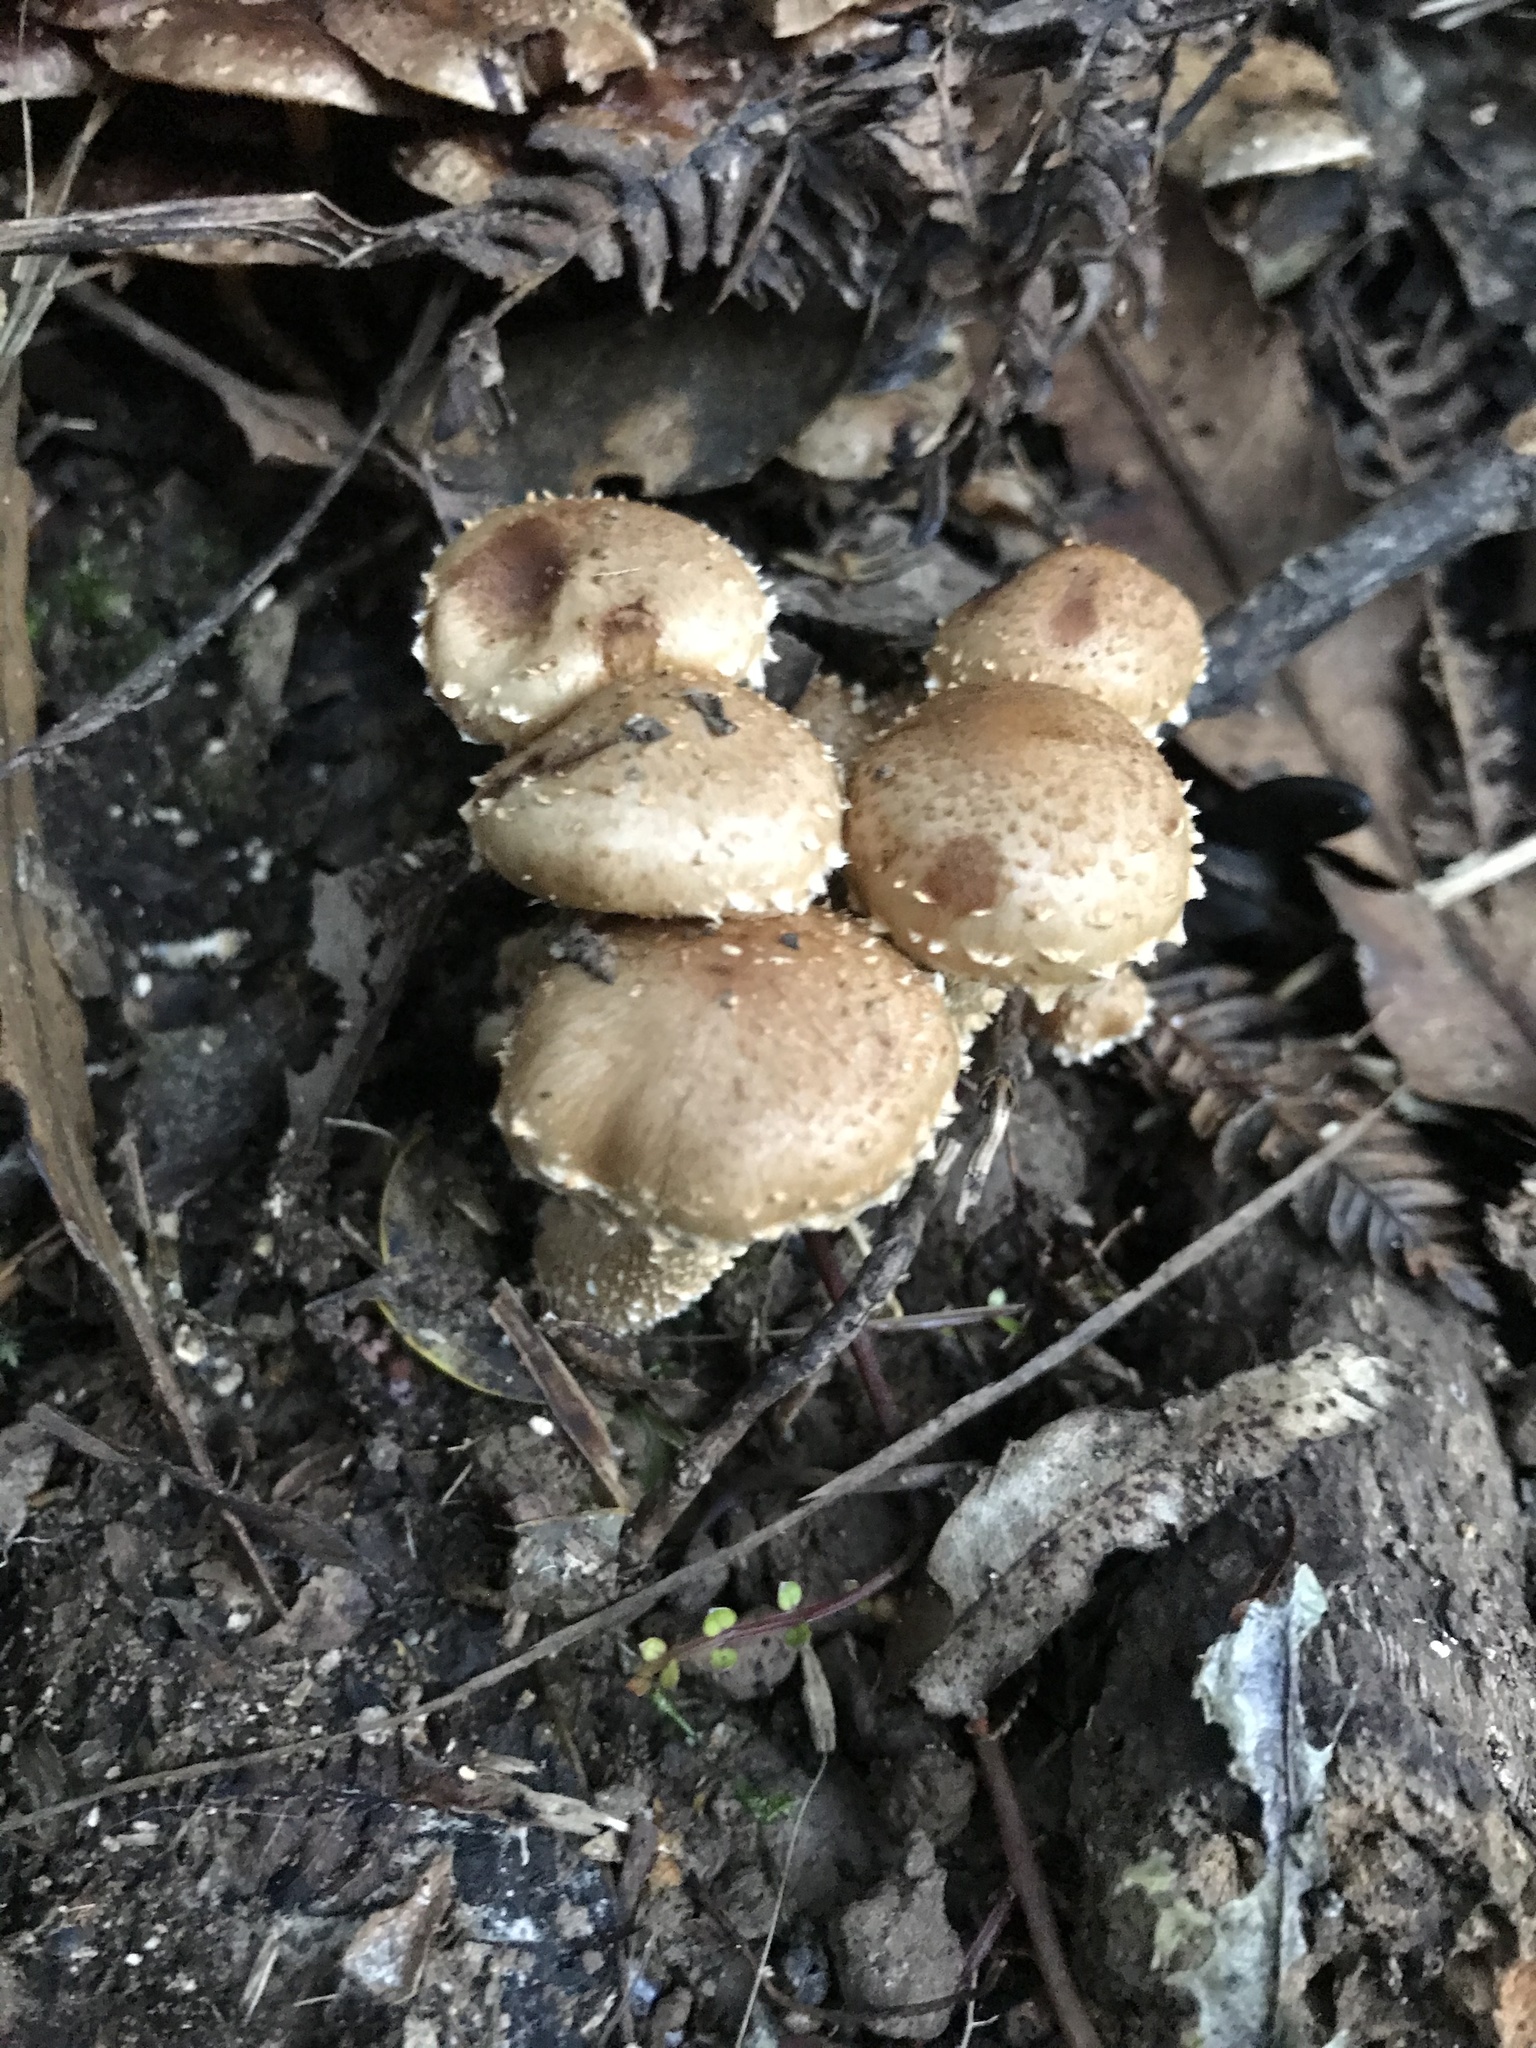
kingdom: Fungi
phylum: Basidiomycota
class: Agaricomycetes
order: Agaricales
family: Strophariaceae
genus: Pholiota
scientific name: Pholiota subflammans
